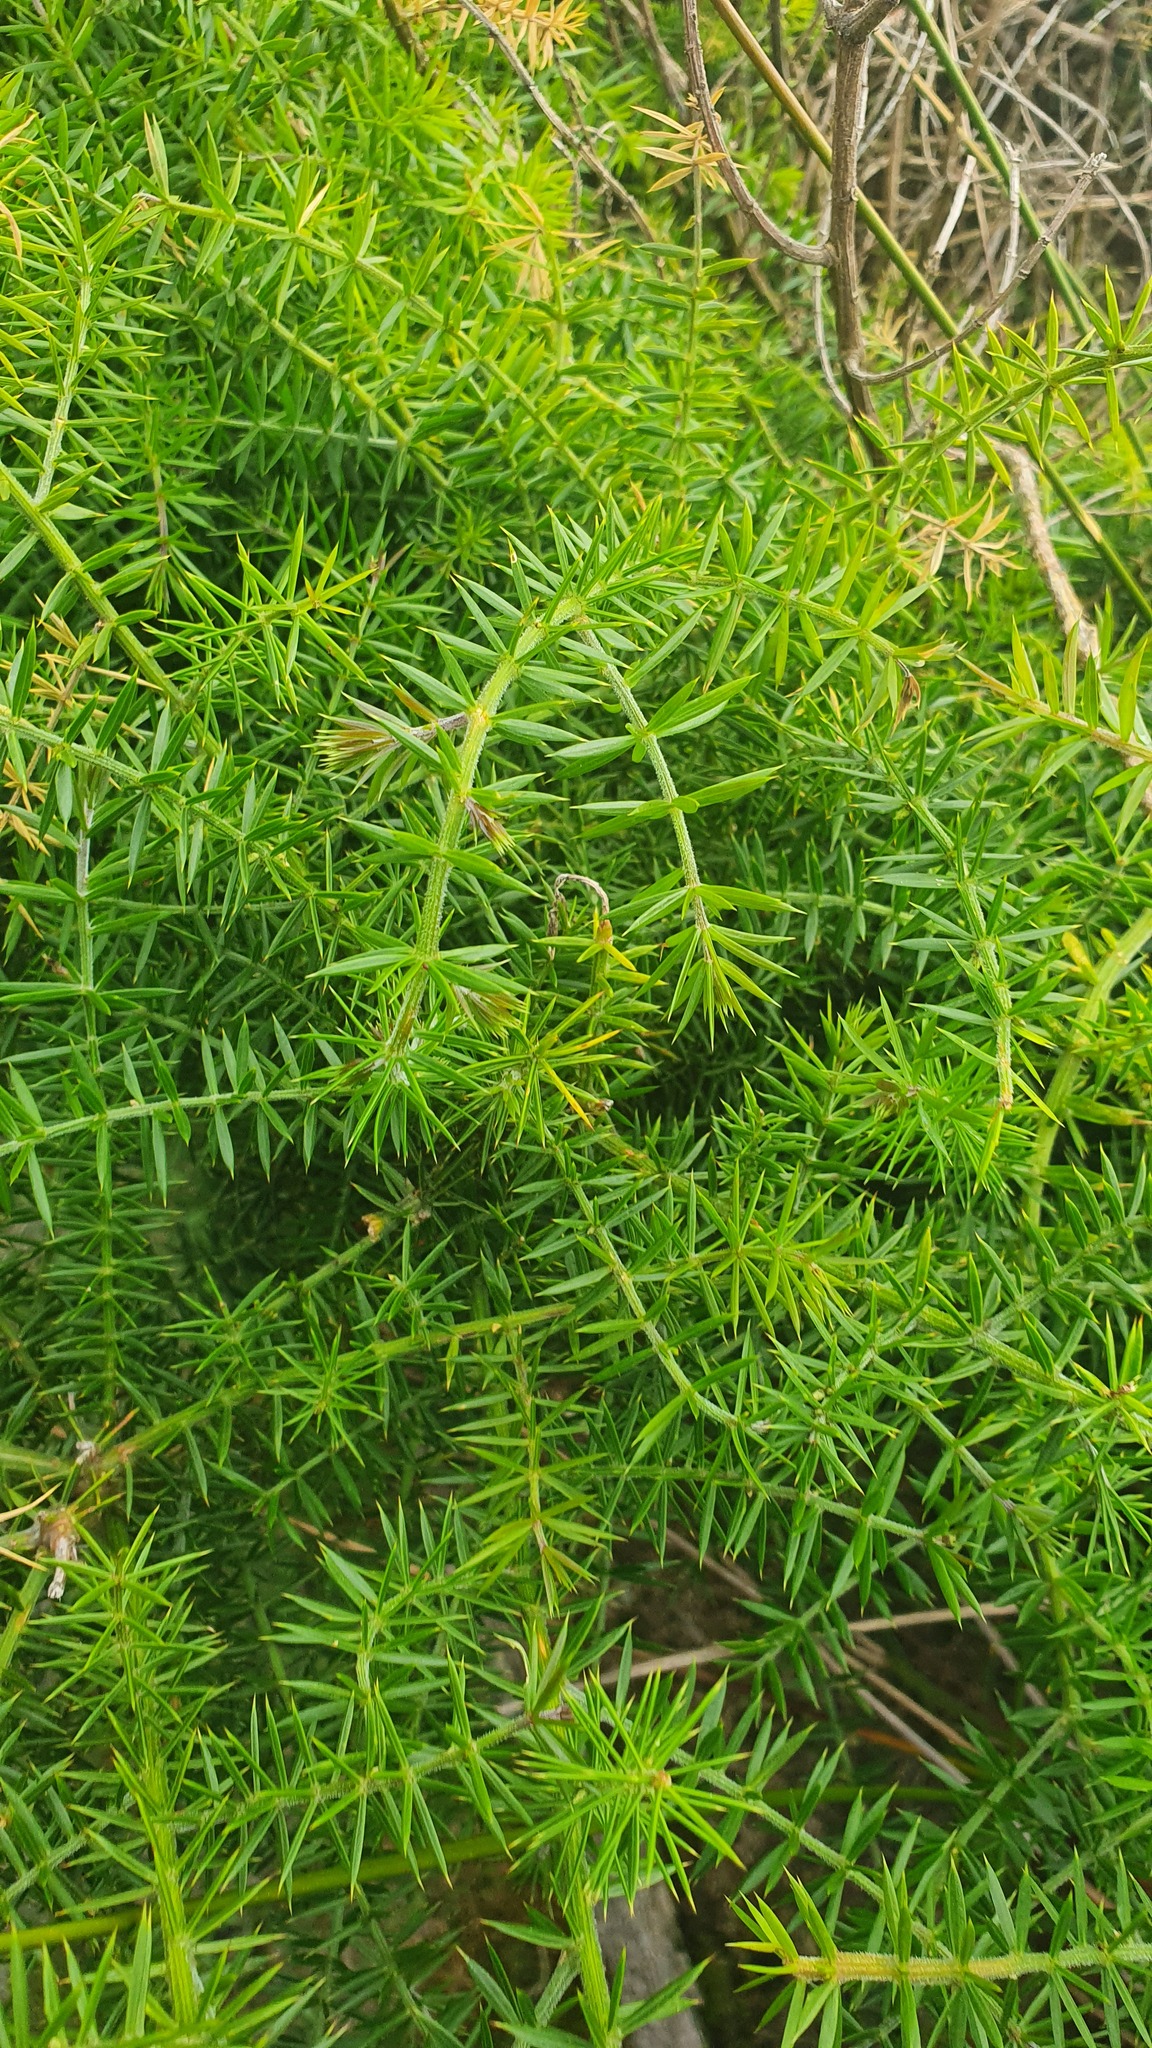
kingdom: Plantae
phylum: Tracheophyta
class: Magnoliopsida
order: Fabales
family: Fabaceae
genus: Acacia
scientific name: Acacia verticillata
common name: Prickly moses
